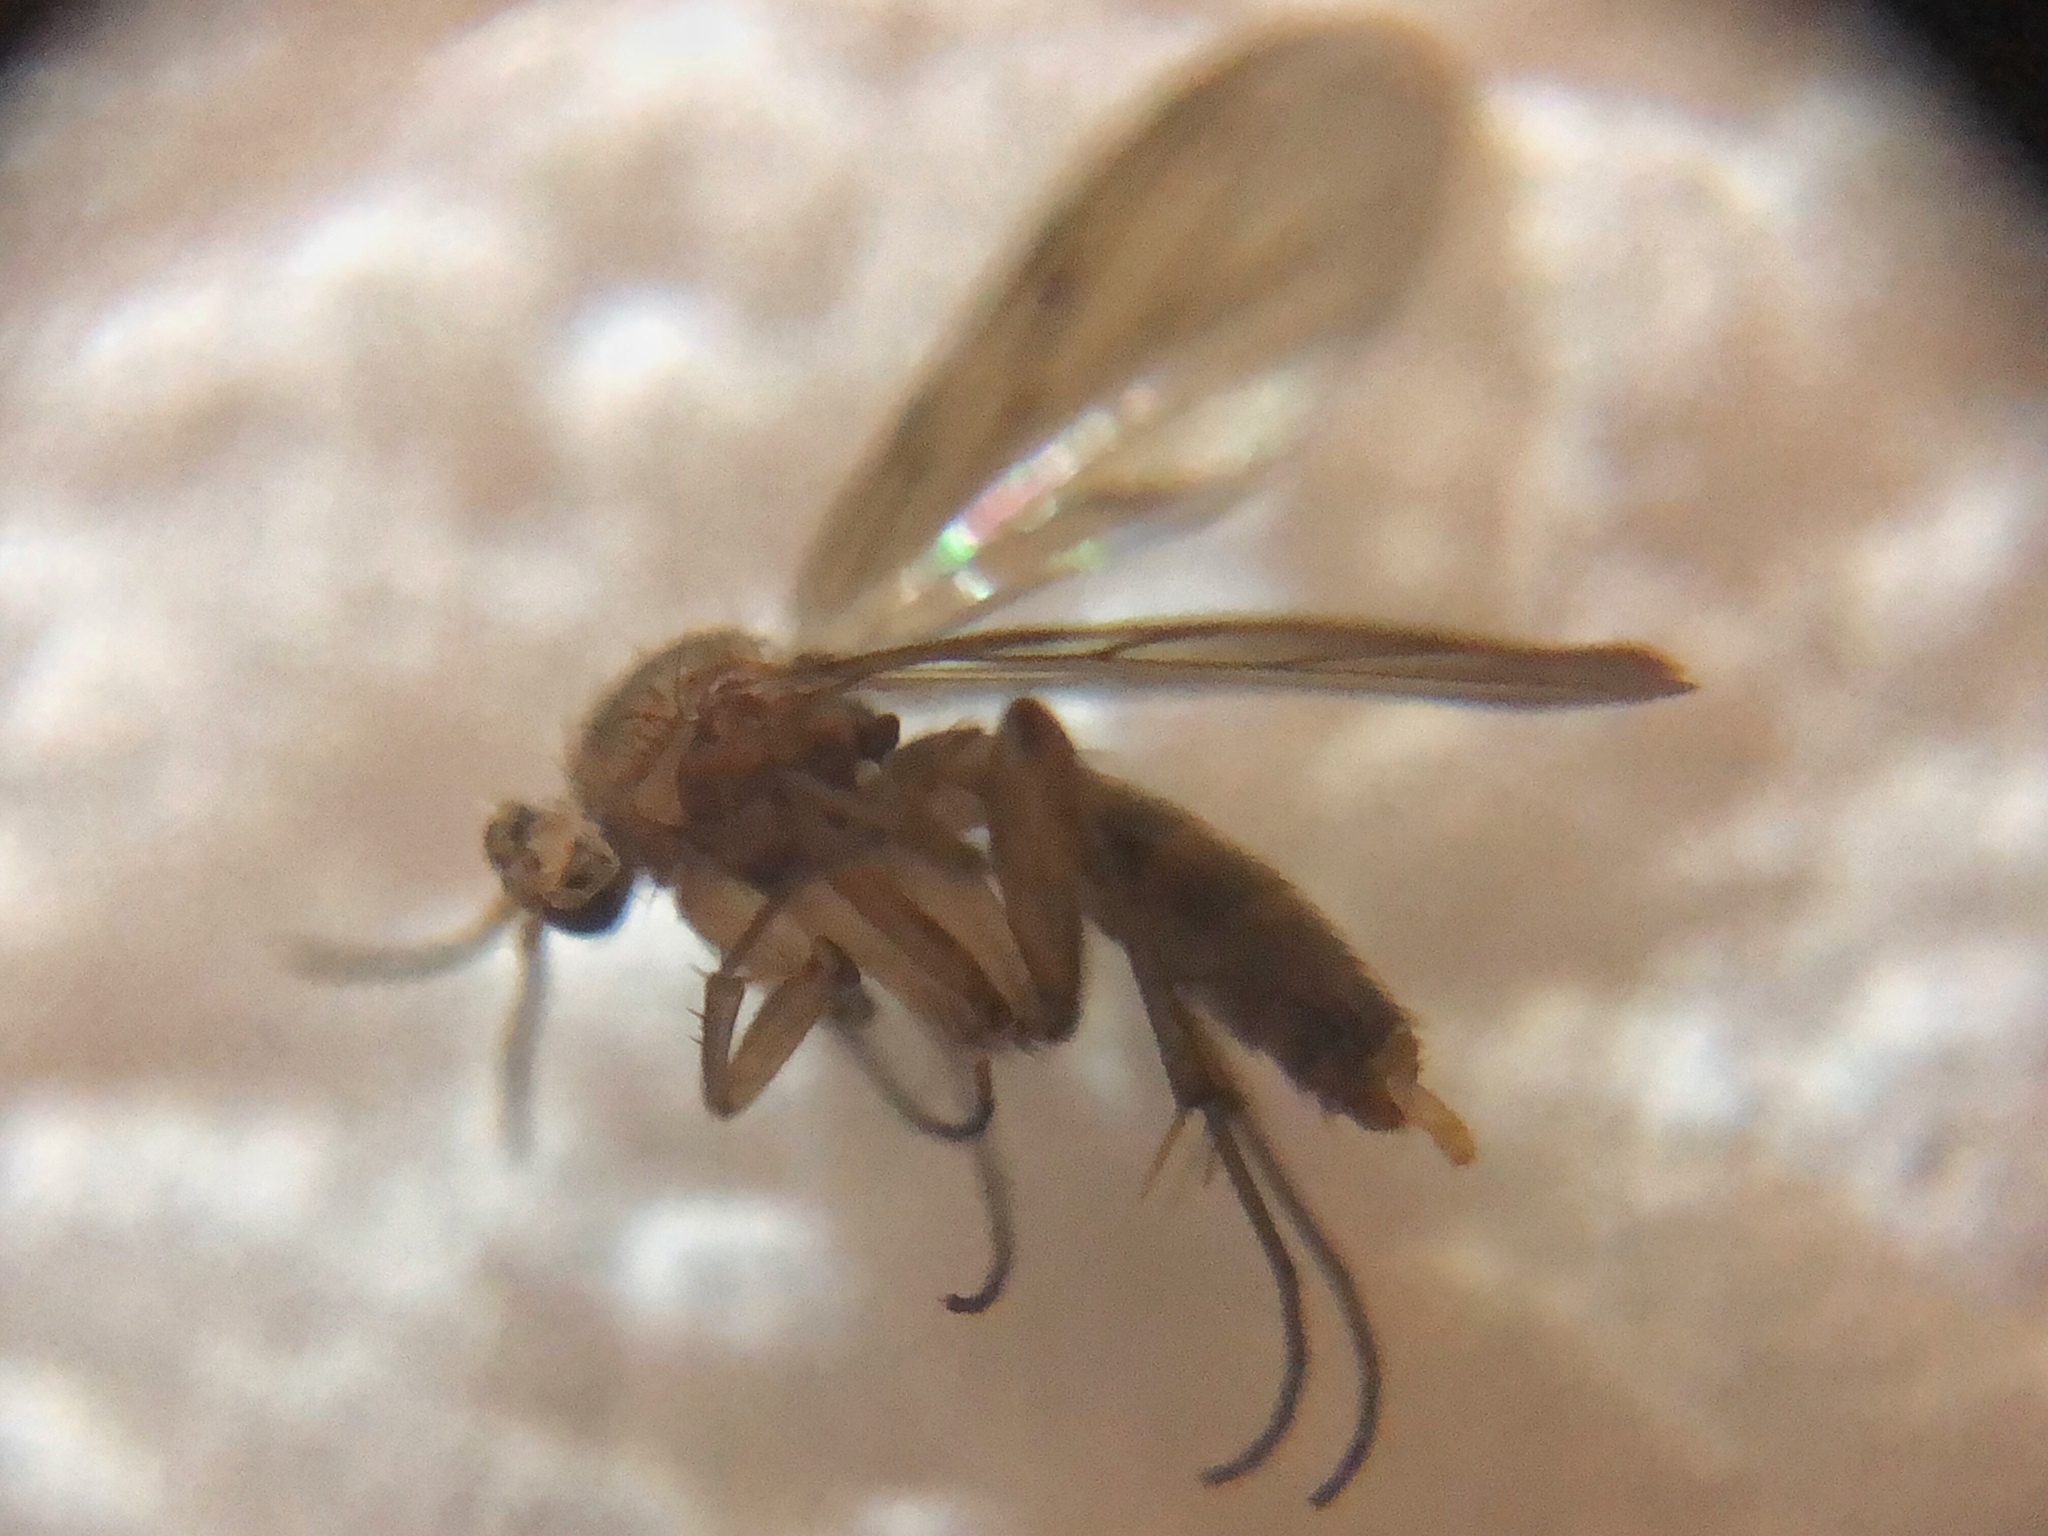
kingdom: Animalia
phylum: Arthropoda
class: Insecta
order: Diptera
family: Mycetophilidae
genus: Leia
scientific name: Leia arsona
